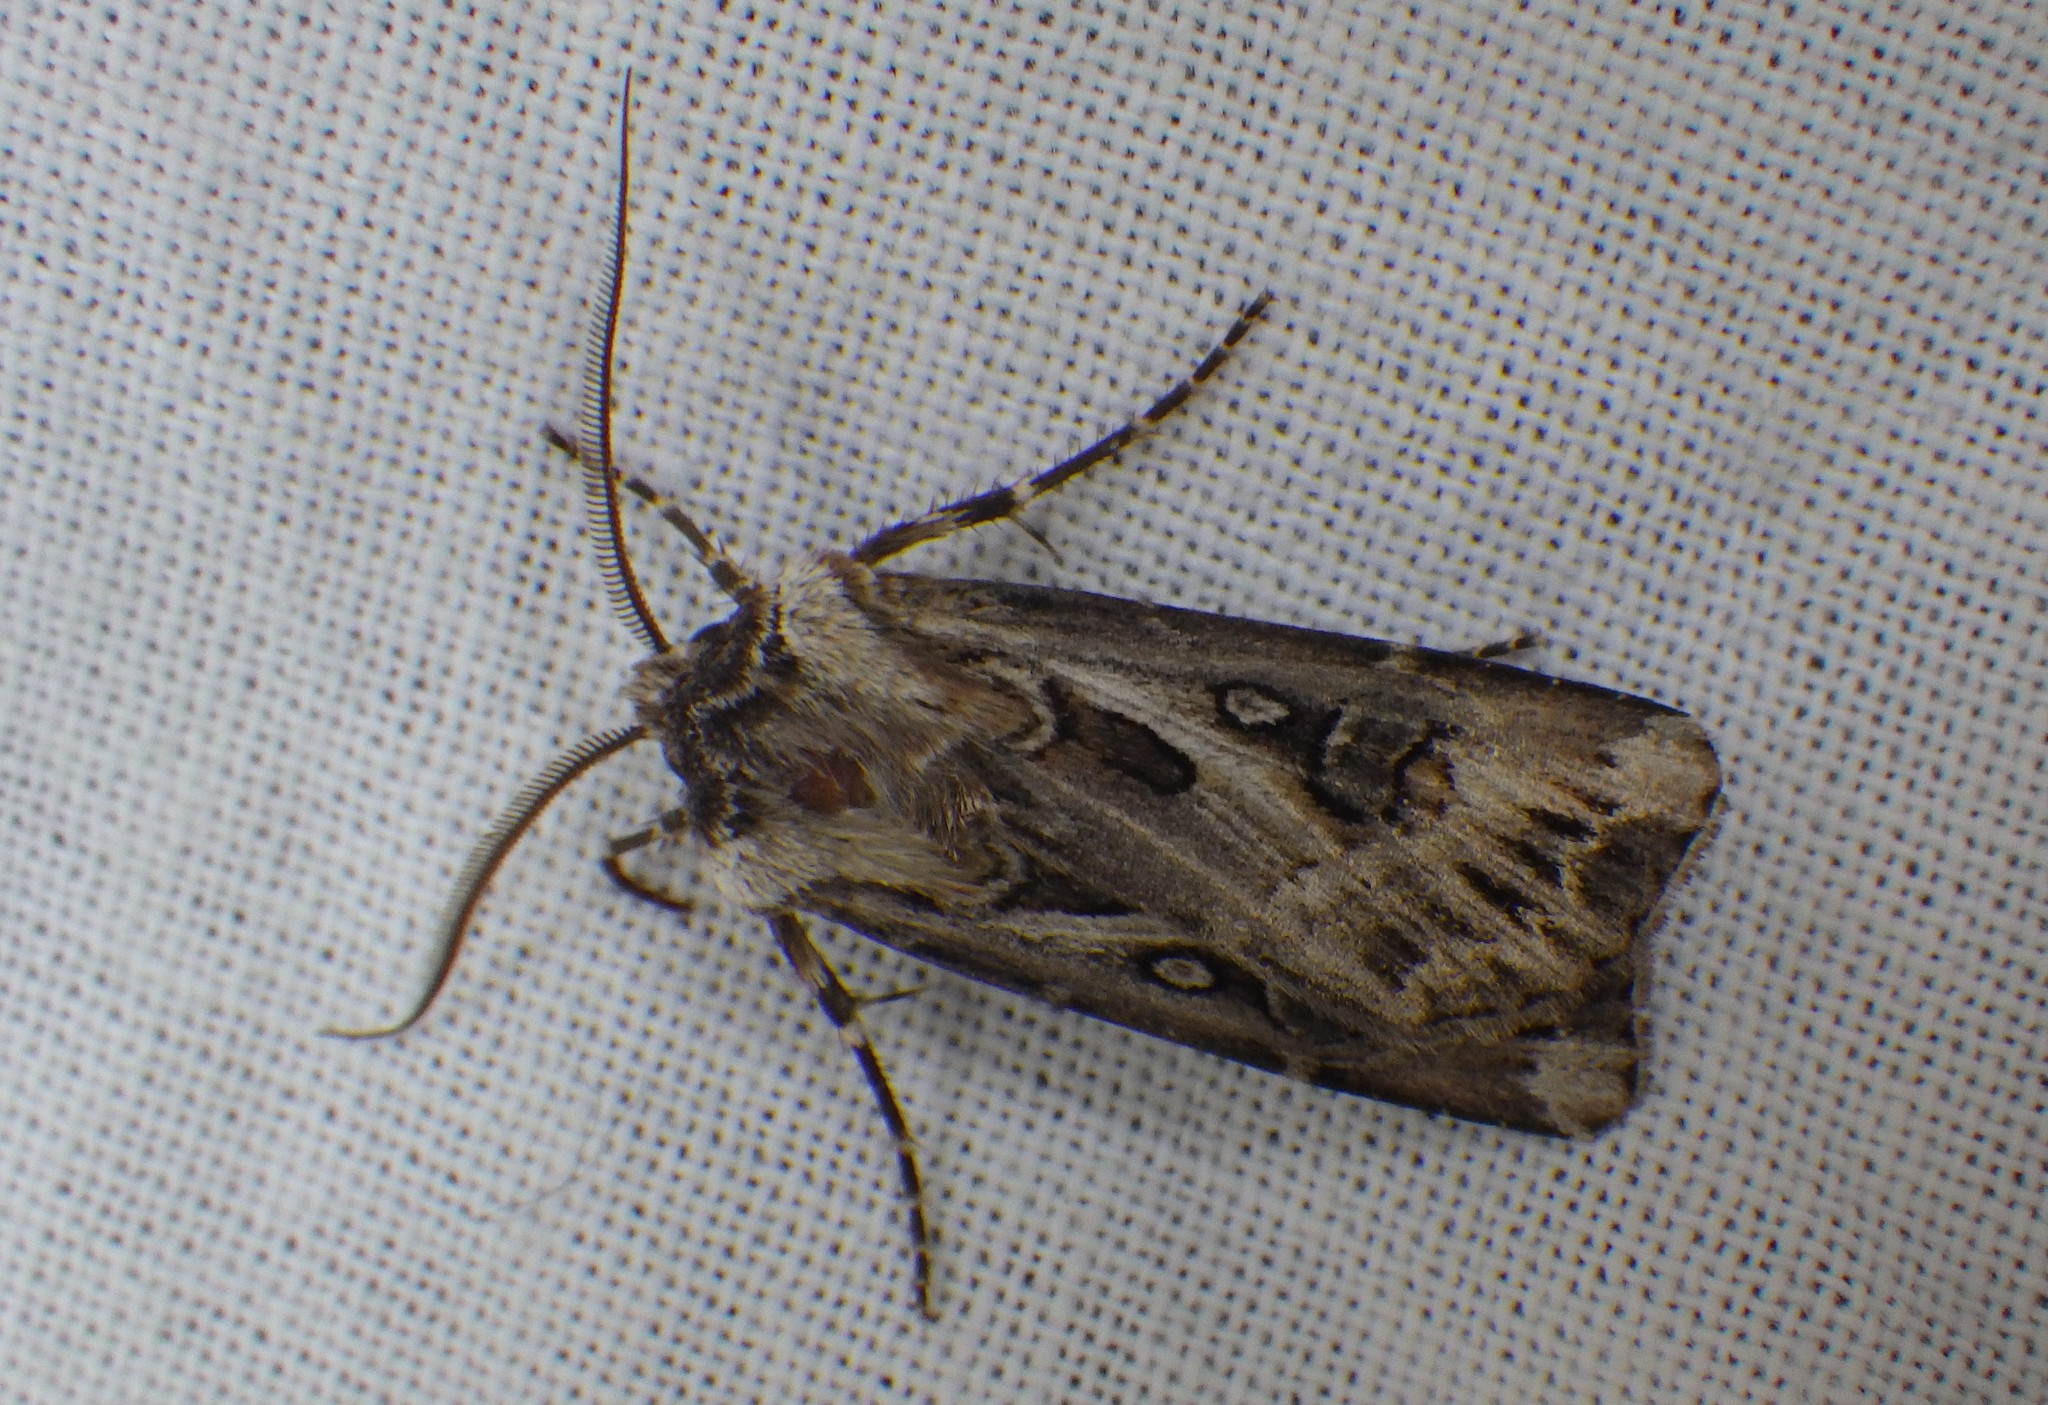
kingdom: Animalia
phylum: Arthropoda
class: Insecta
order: Lepidoptera
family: Noctuidae
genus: Agrotis
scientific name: Agrotis vestigialis
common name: Archer's dart
